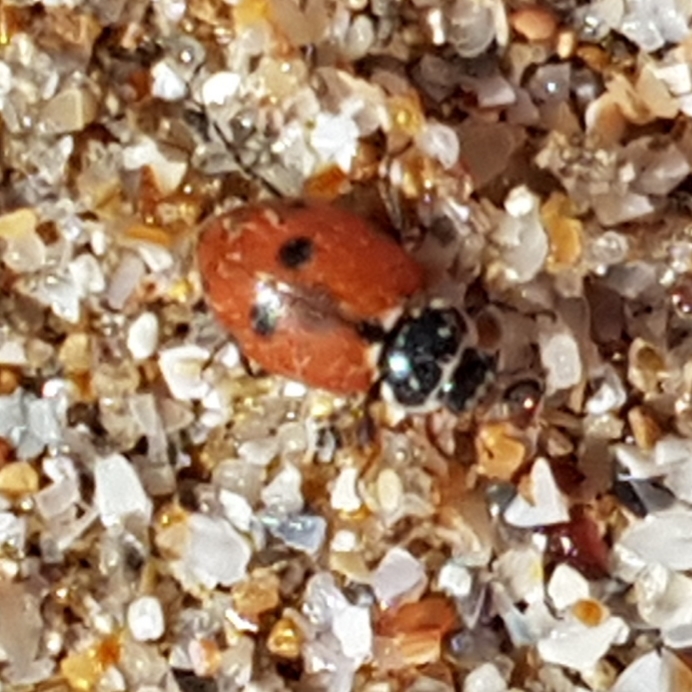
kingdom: Animalia
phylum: Arthropoda
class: Insecta
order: Coleoptera
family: Coccinellidae
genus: Hippodamia
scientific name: Hippodamia variegata
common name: Ladybird beetle
